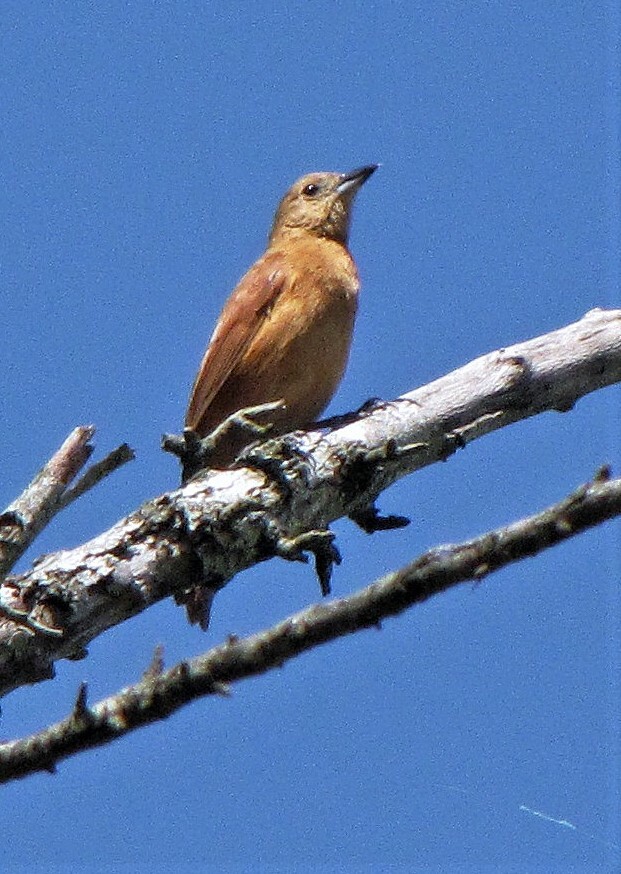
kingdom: Animalia
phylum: Chordata
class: Aves
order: Passeriformes
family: Thraupidae
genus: Tachyphonus
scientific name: Tachyphonus rufus
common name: White-lined tanager
